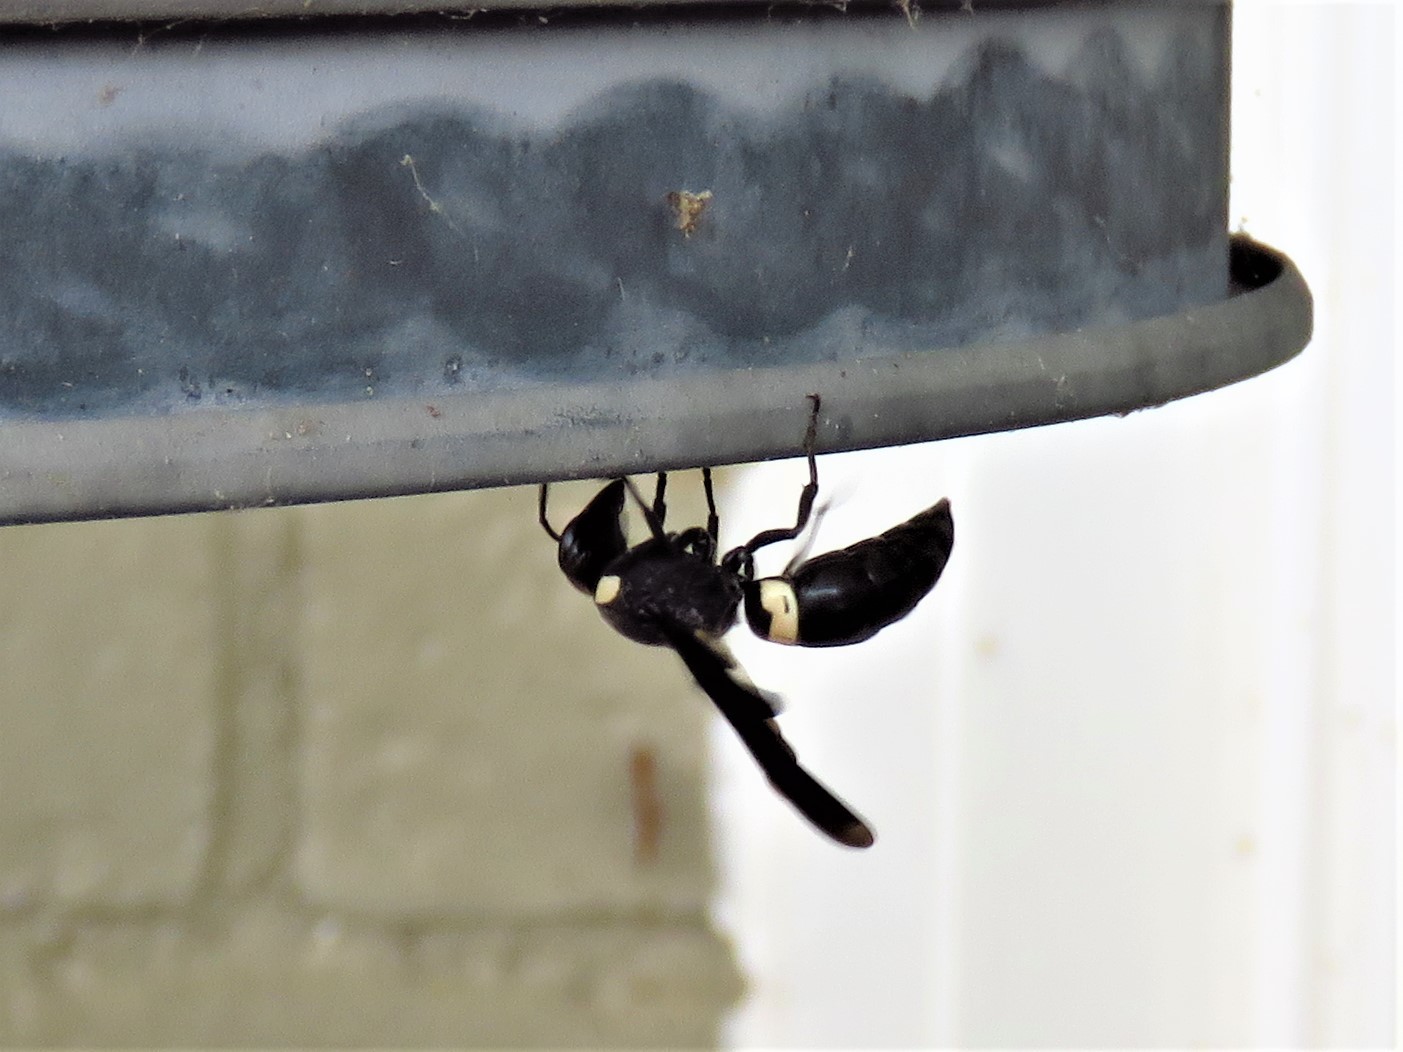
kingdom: Animalia
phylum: Arthropoda
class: Insecta
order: Hymenoptera
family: Eumenidae
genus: Monobia
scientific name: Monobia quadridens
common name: Four-toothed mason wasp
